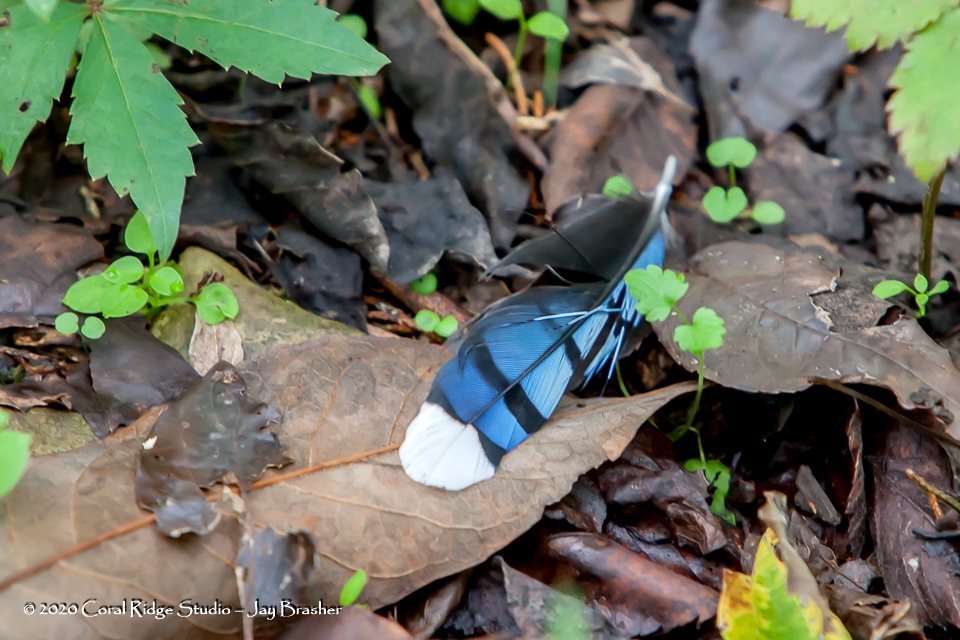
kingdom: Animalia
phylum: Chordata
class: Aves
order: Passeriformes
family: Corvidae
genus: Cyanocitta
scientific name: Cyanocitta cristata
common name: Blue jay
